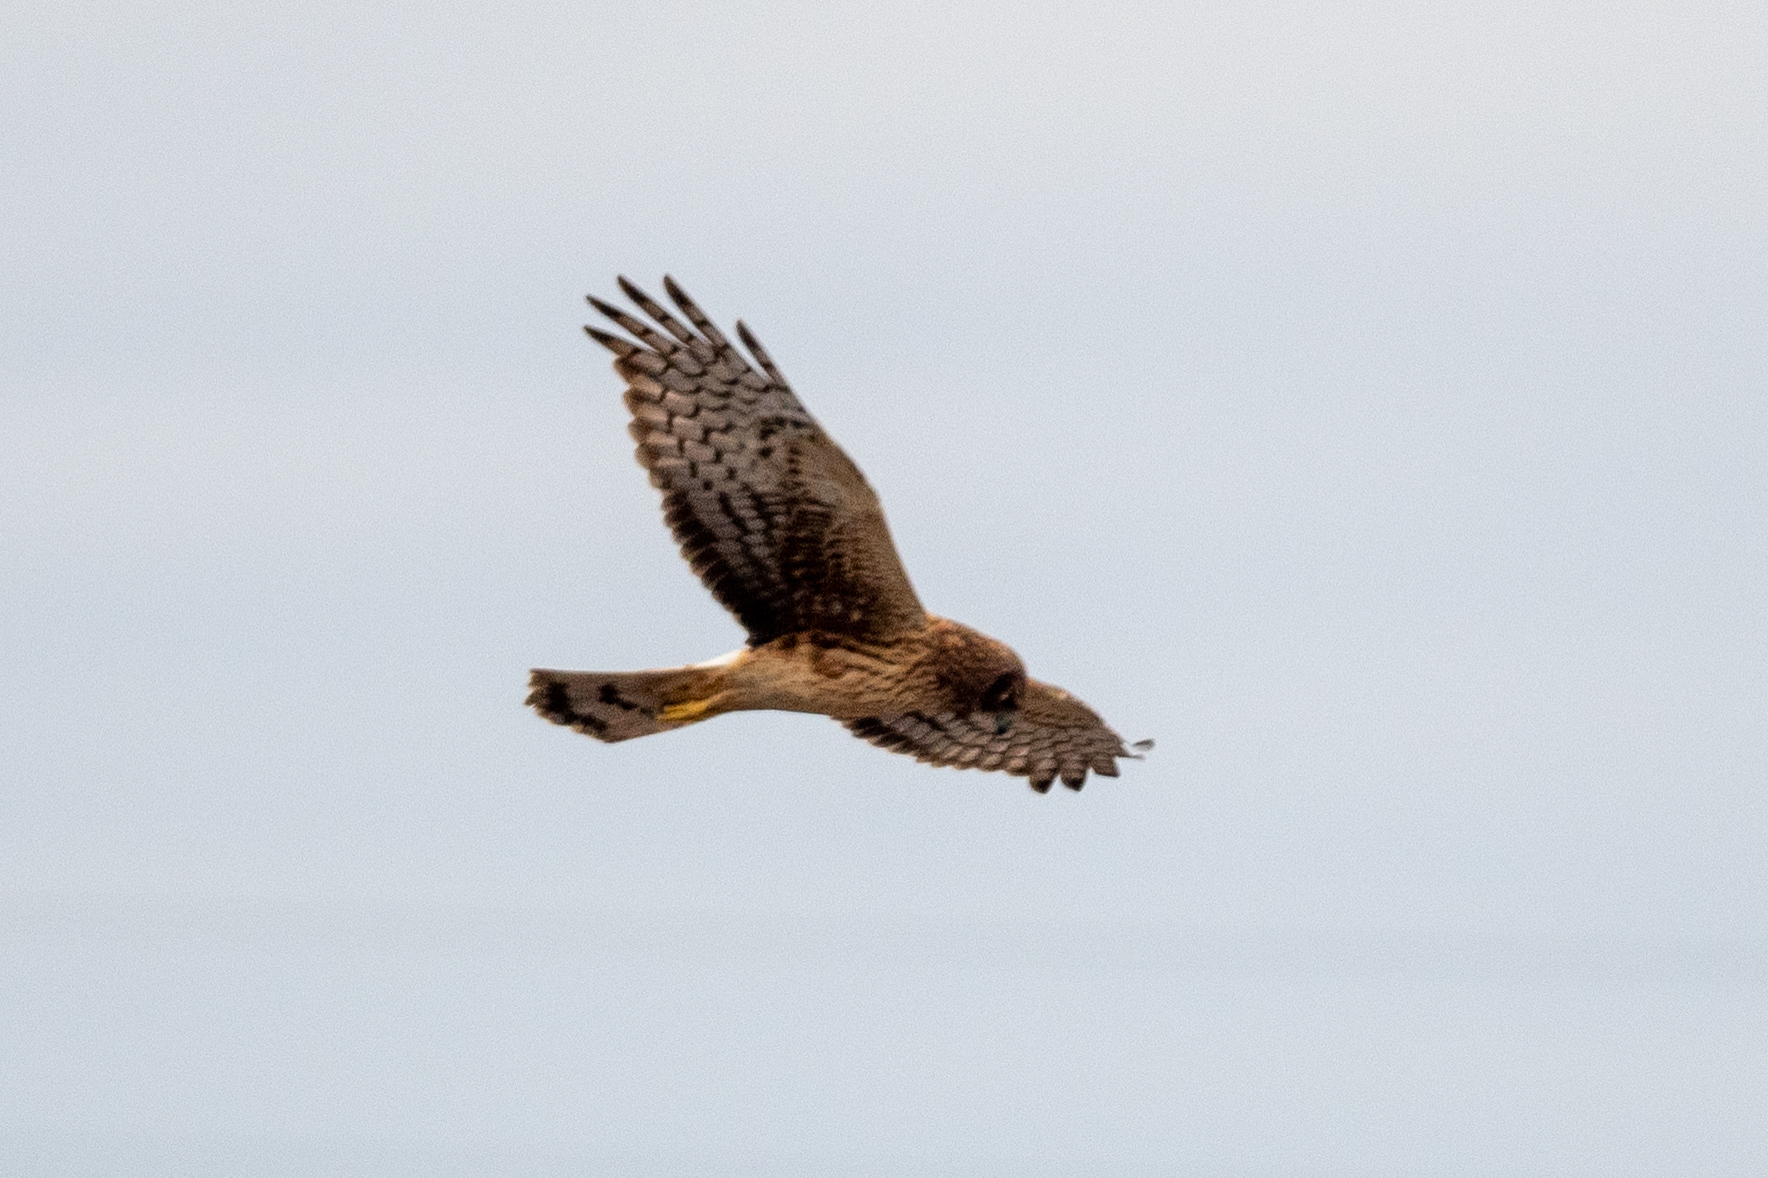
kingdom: Animalia
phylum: Chordata
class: Aves
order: Accipitriformes
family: Accipitridae
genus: Circus
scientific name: Circus cyaneus
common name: Hen harrier
